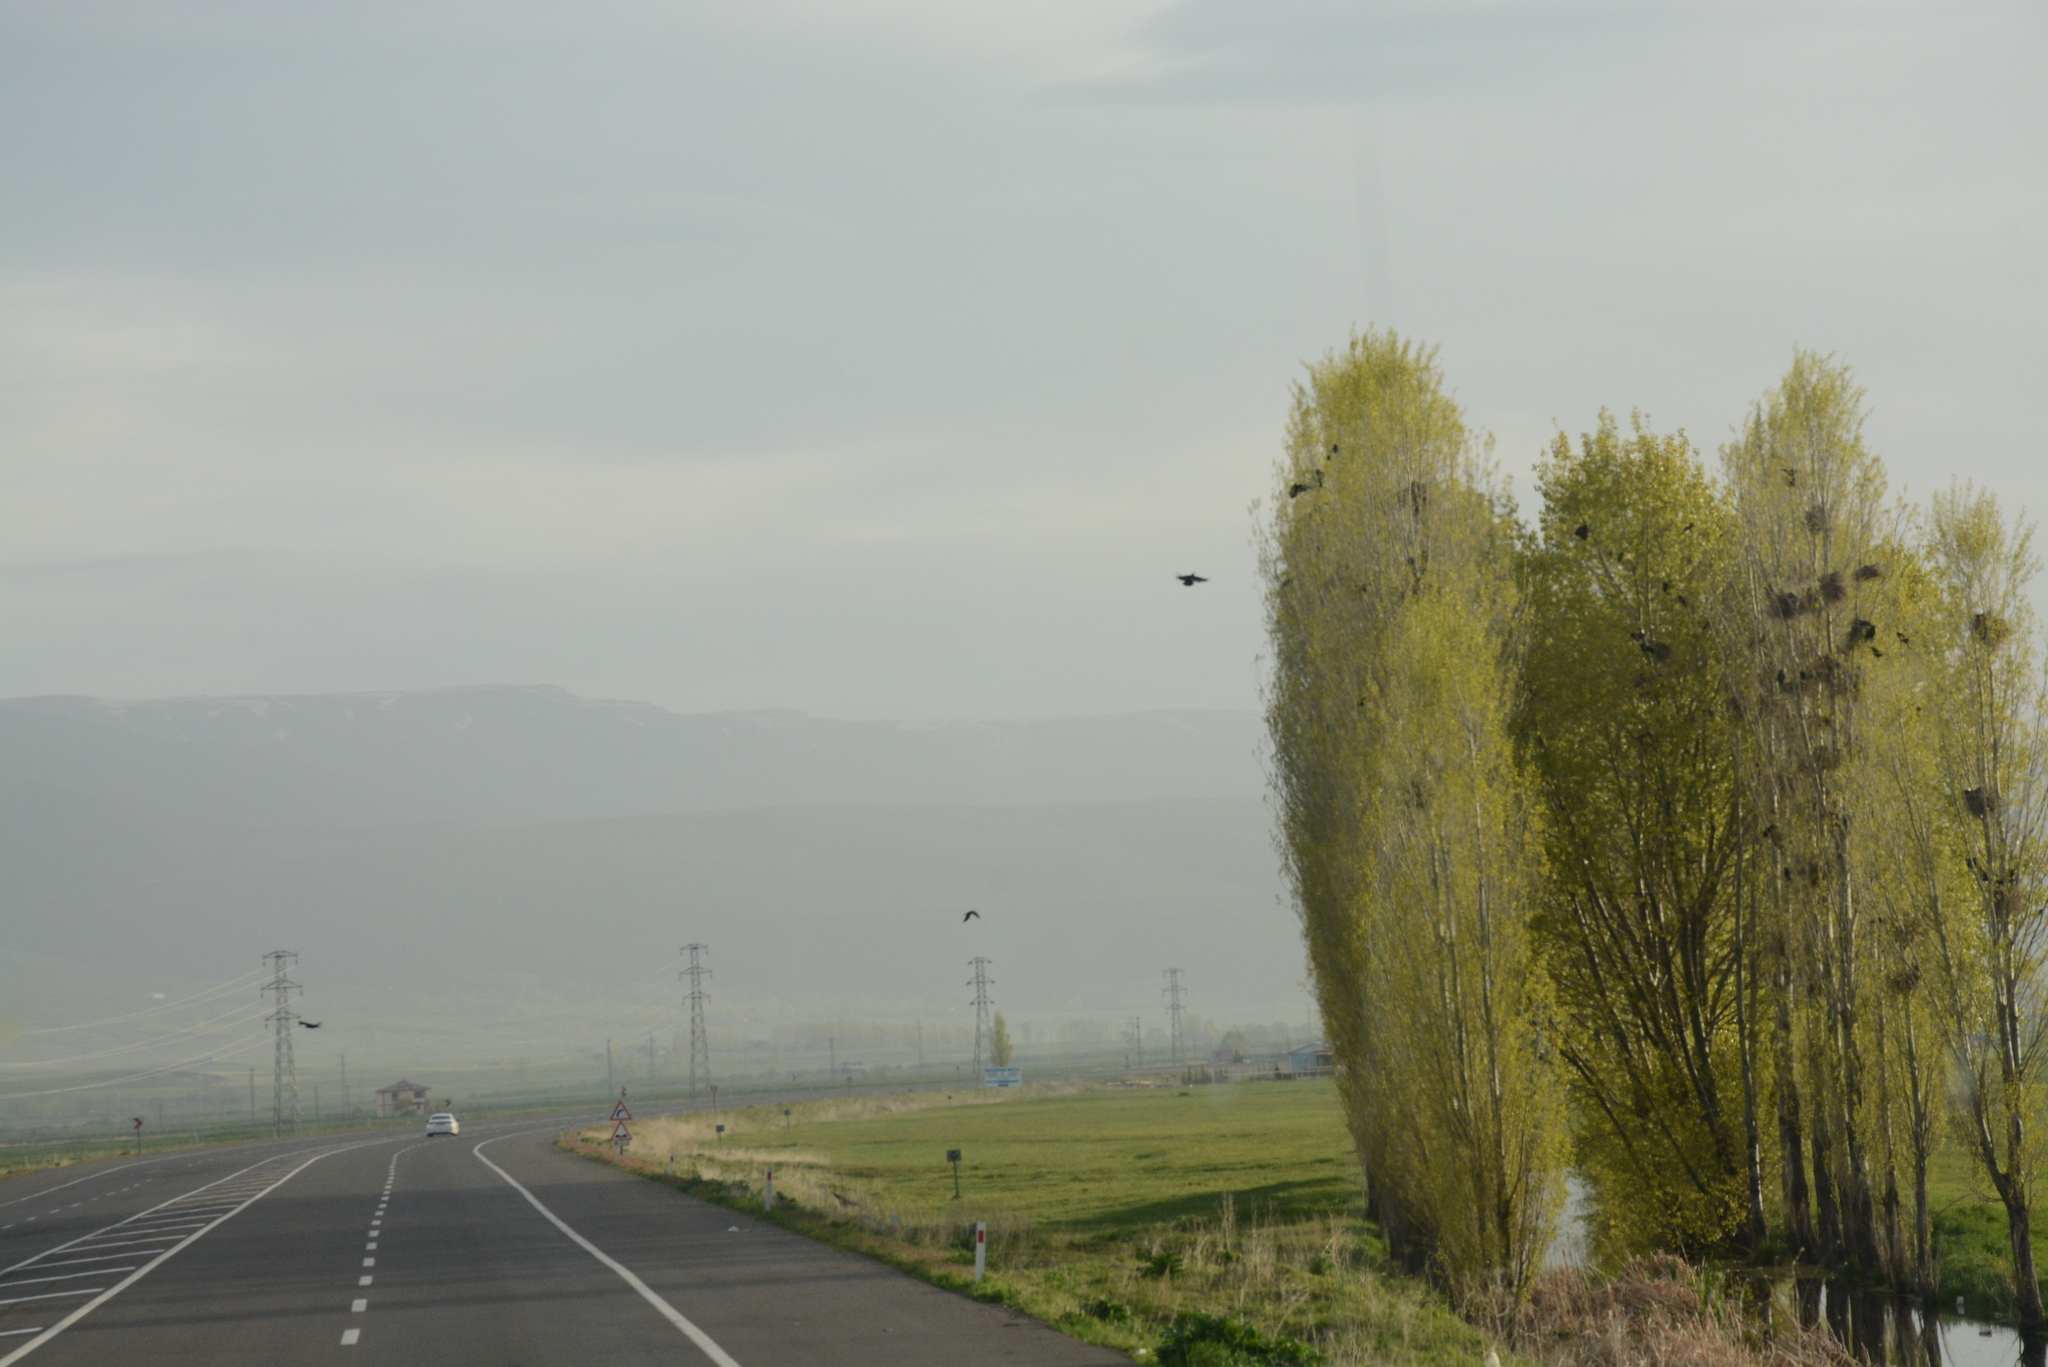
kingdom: Animalia
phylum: Chordata
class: Aves
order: Passeriformes
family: Corvidae
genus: Corvus
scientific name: Corvus frugilegus
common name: Rook
